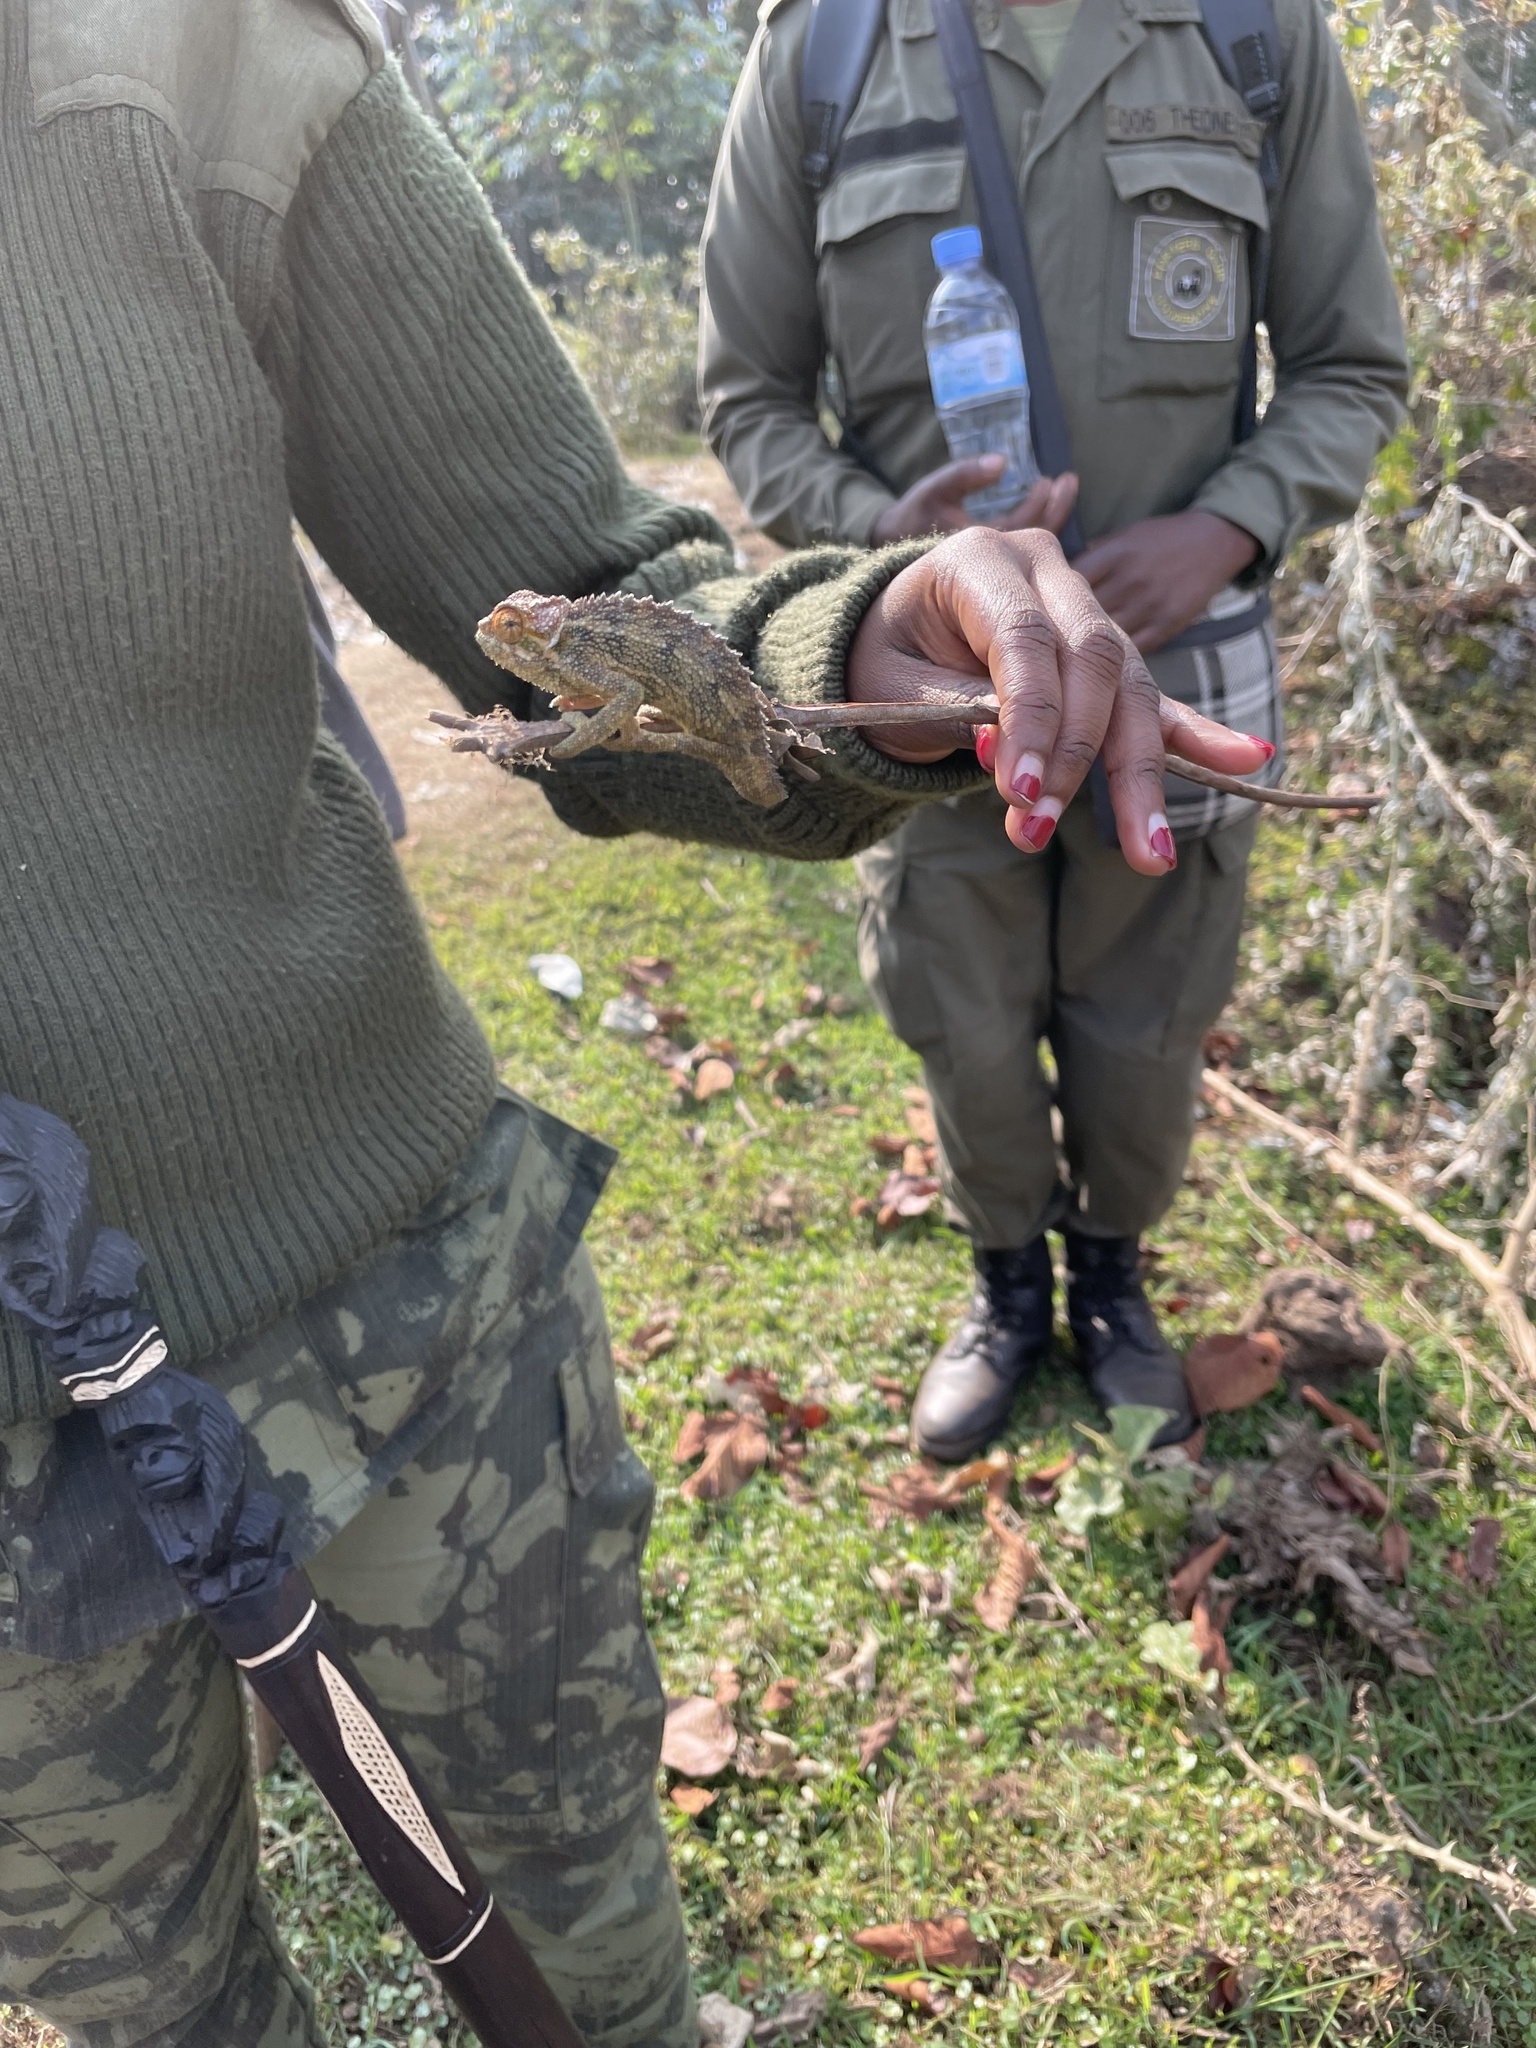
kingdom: Animalia
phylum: Chordata
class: Squamata
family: Chamaeleonidae
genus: Trioceros
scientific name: Trioceros rudis
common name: Coarse chameleon
